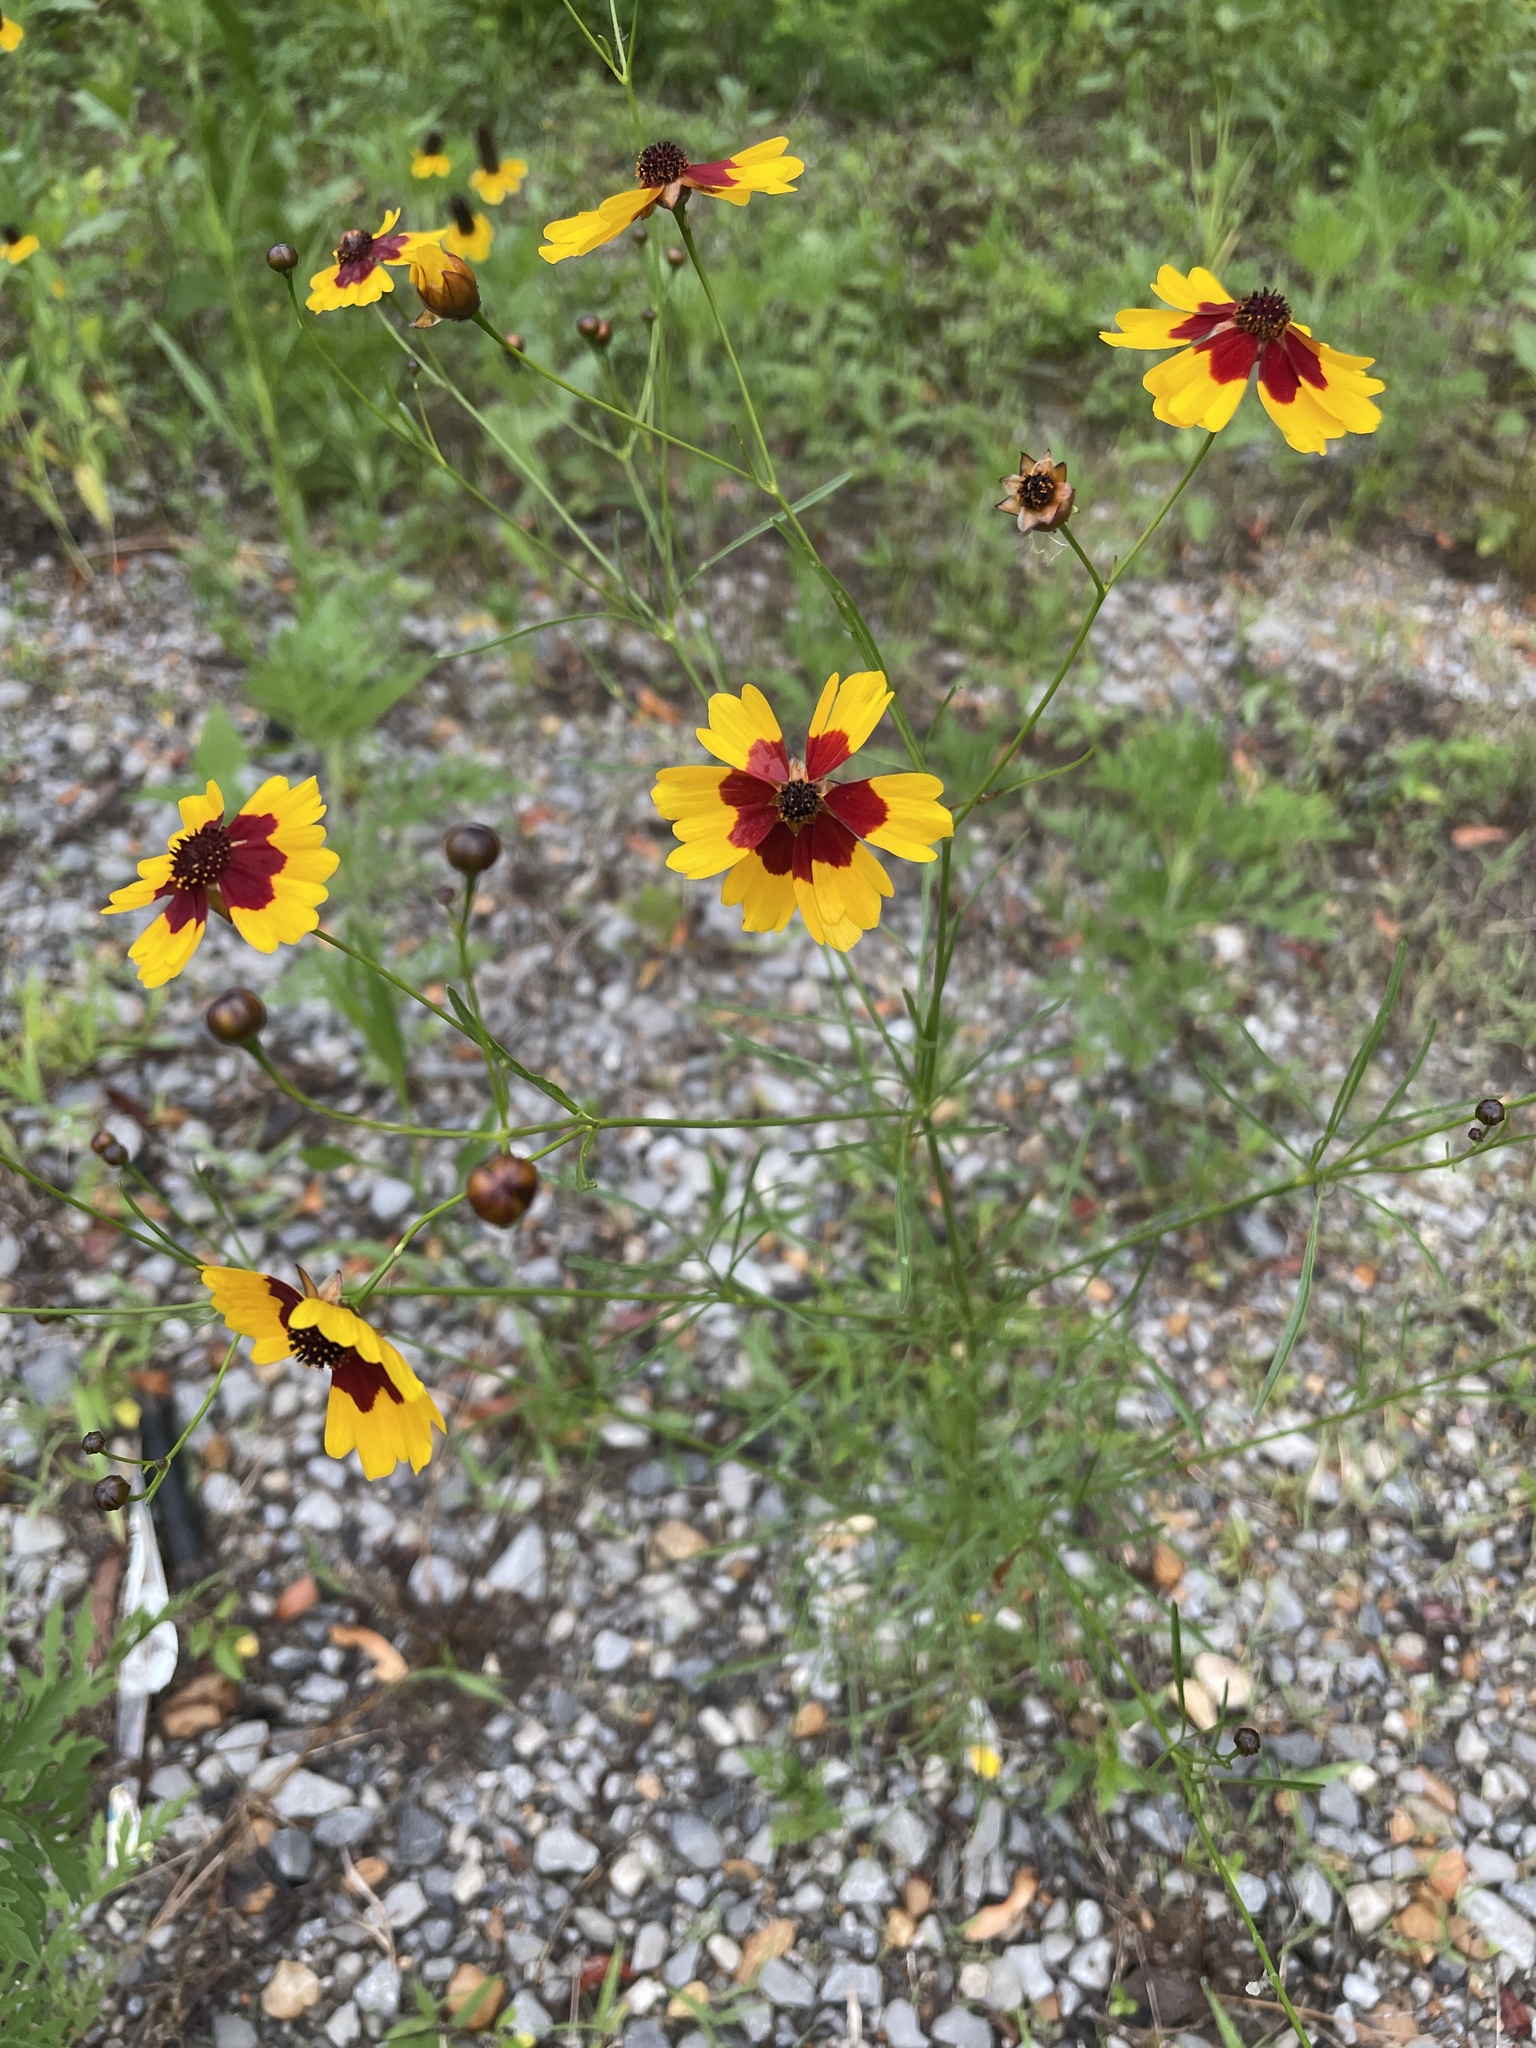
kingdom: Plantae
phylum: Tracheophyta
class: Magnoliopsida
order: Asterales
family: Asteraceae
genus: Coreopsis
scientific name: Coreopsis tinctoria
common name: Garden tickseed
